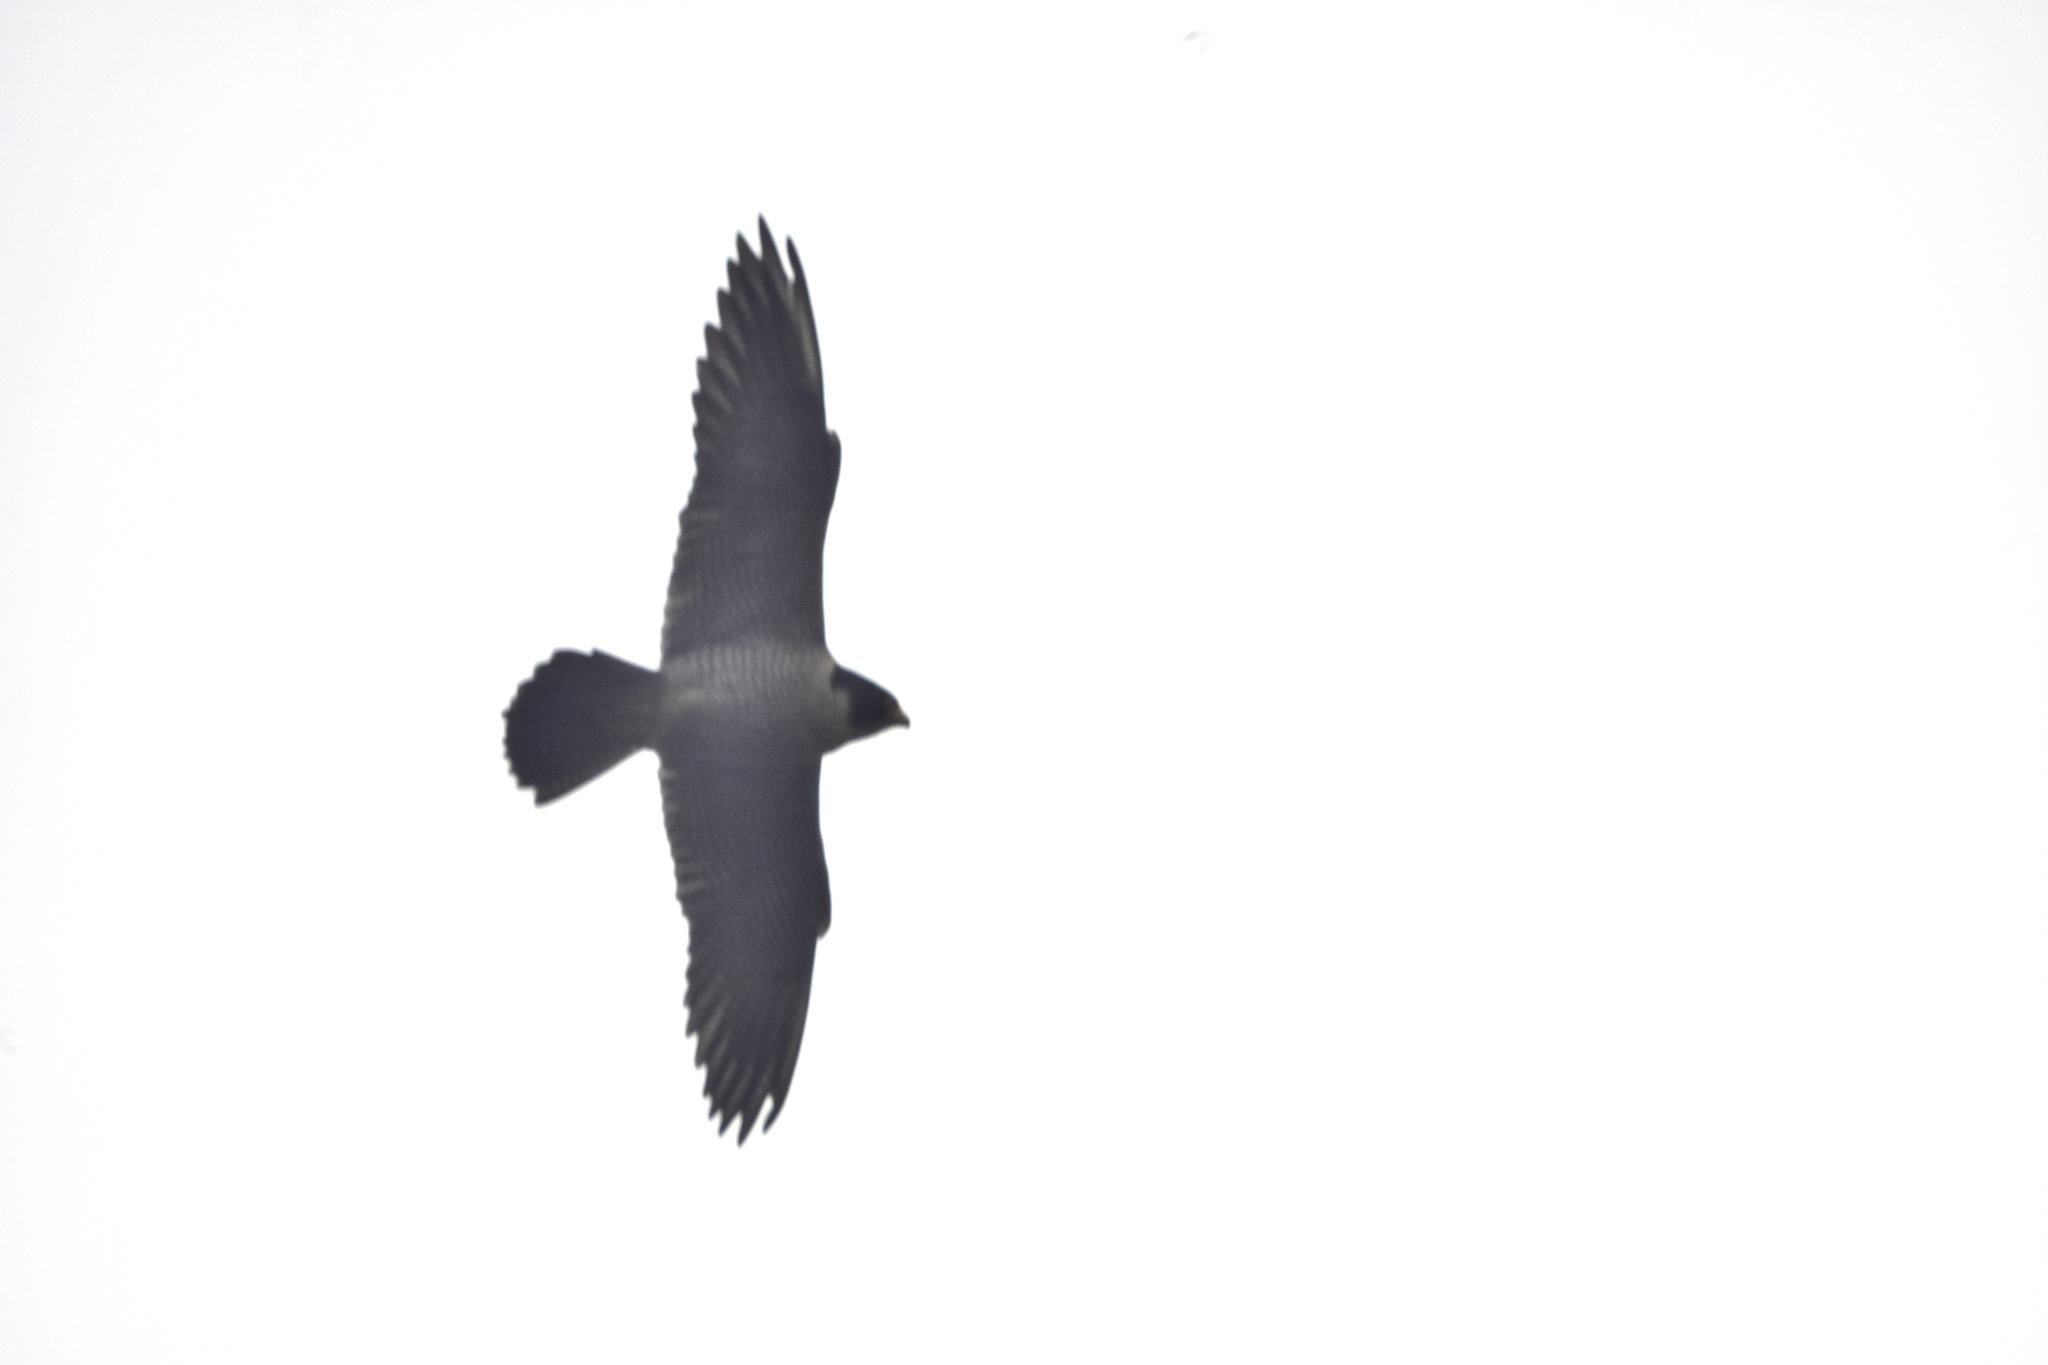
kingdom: Animalia
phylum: Chordata
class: Aves
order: Falconiformes
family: Falconidae
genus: Falco
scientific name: Falco peregrinus
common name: Peregrine falcon
